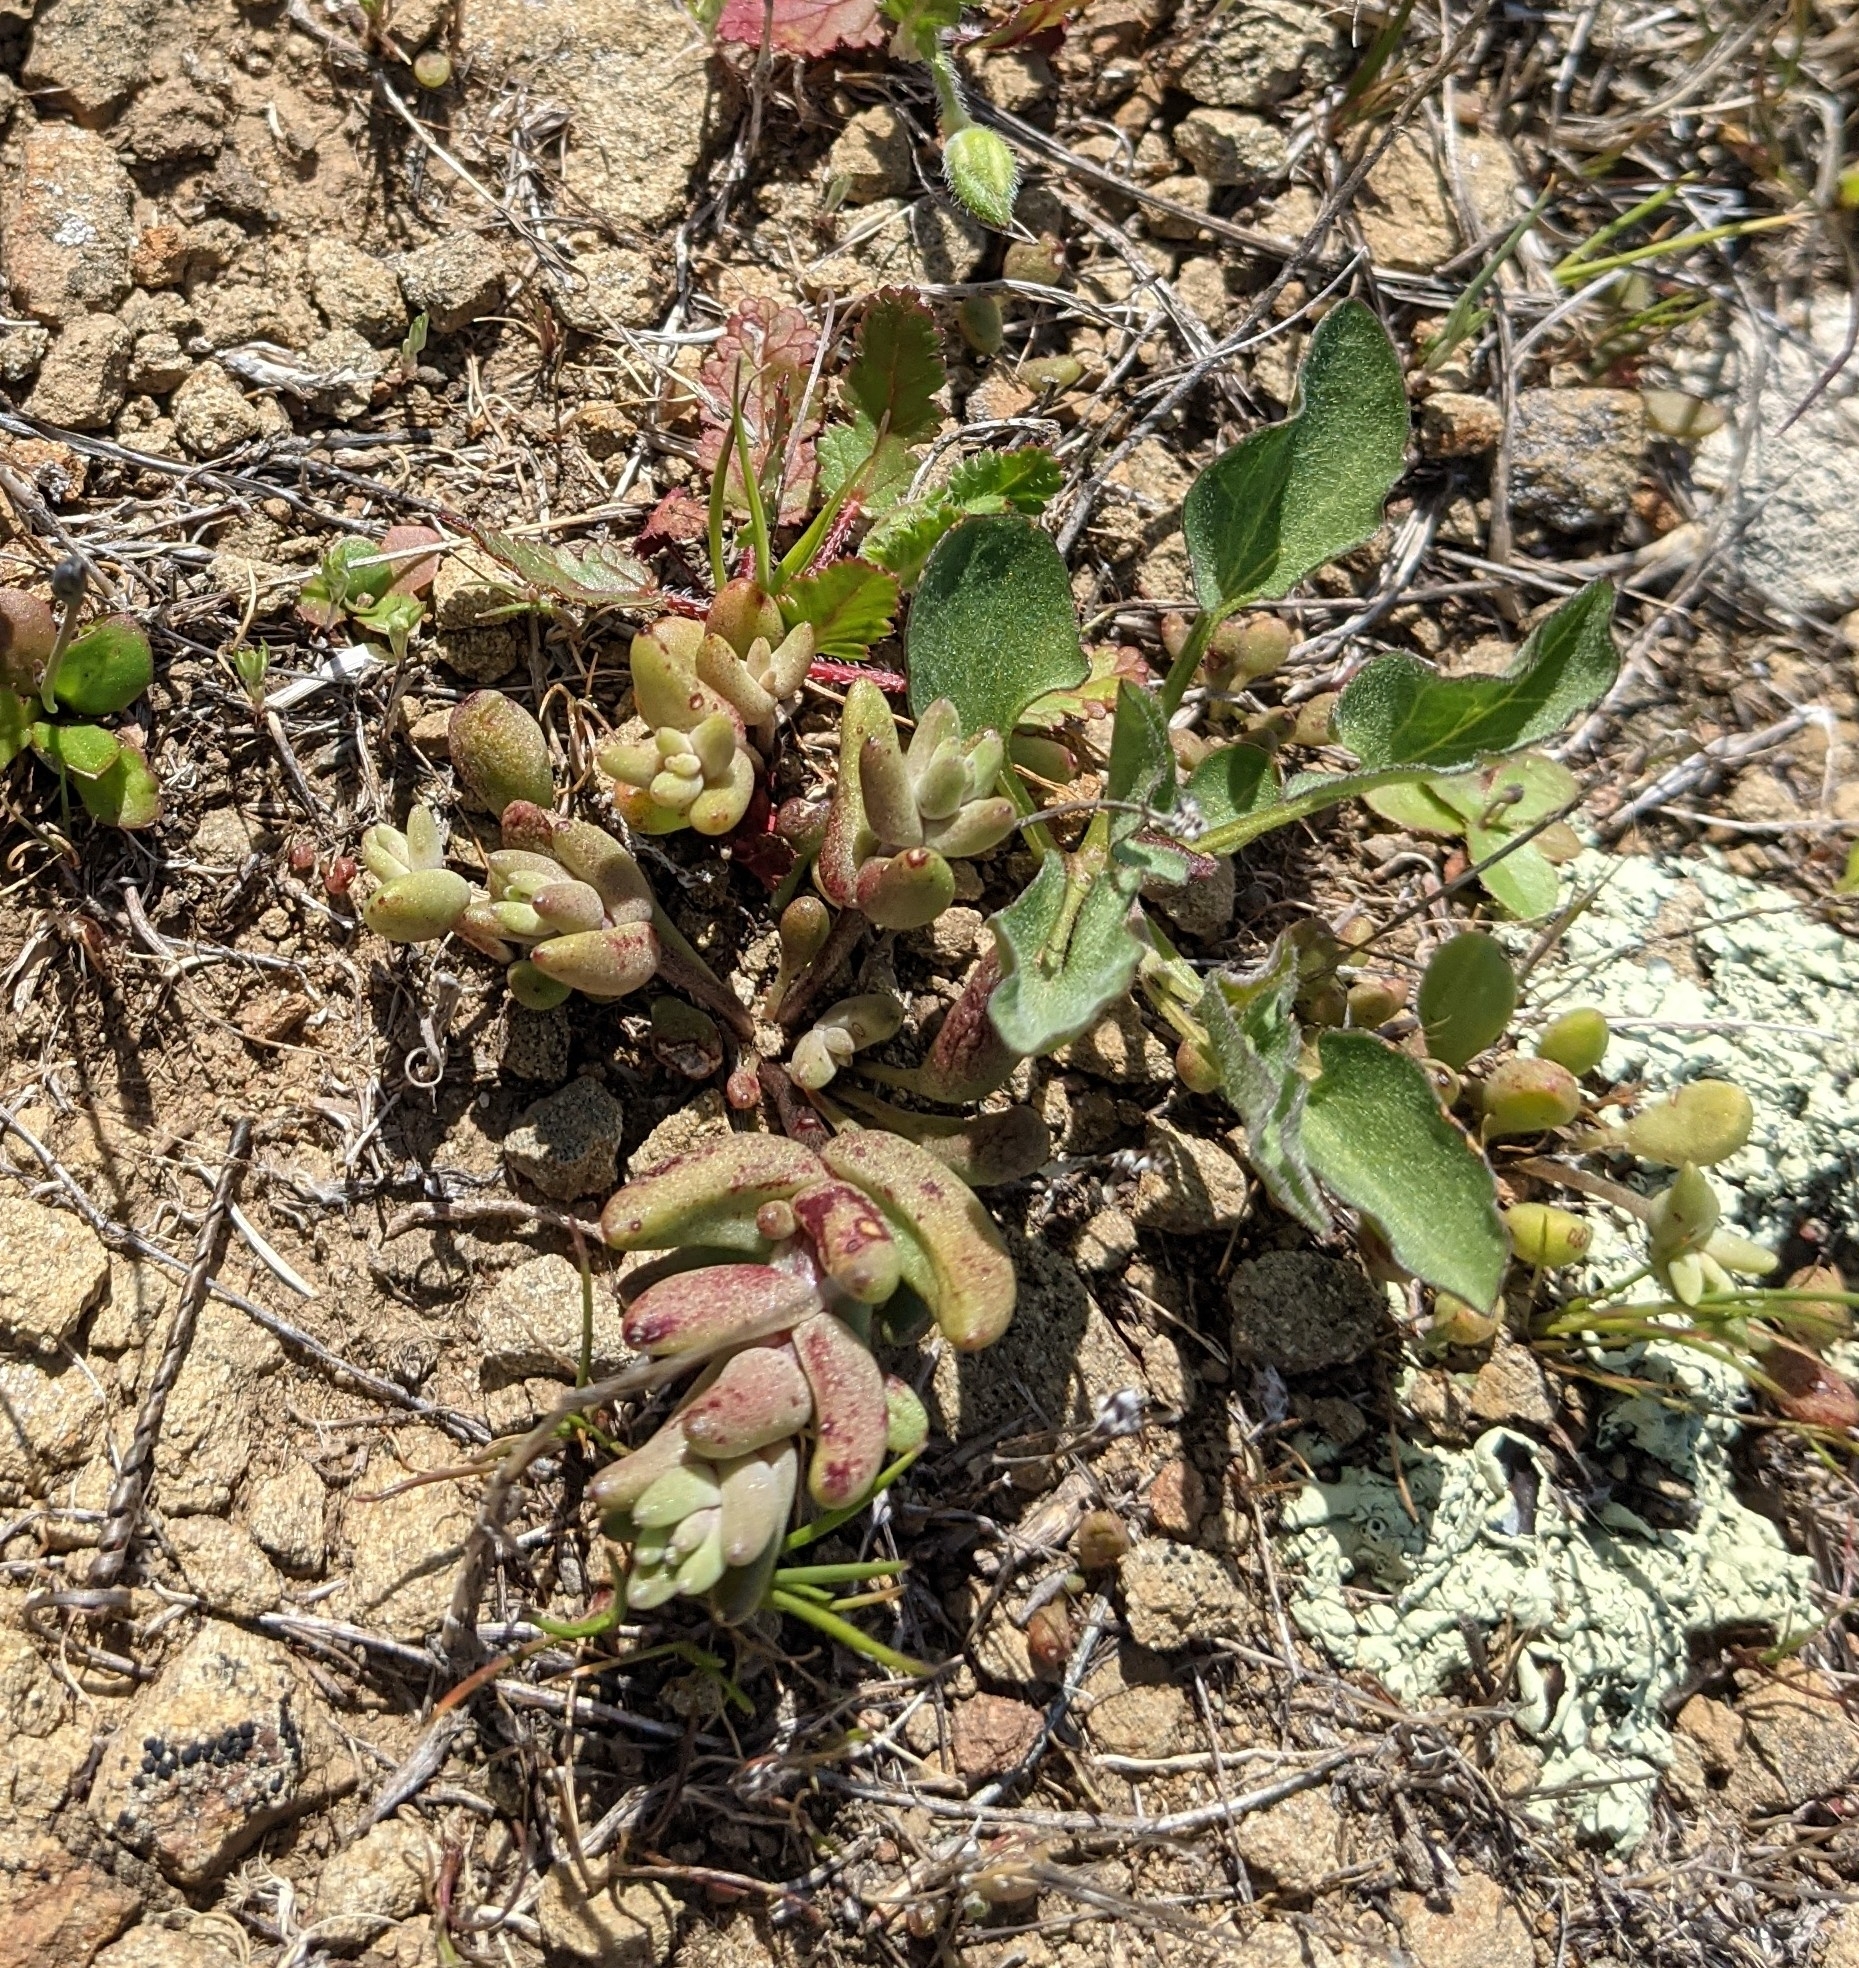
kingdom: Plantae
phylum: Tracheophyta
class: Magnoliopsida
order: Saxifragales
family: Crassulaceae
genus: Dudleya
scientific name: Dudleya blochmaniae
